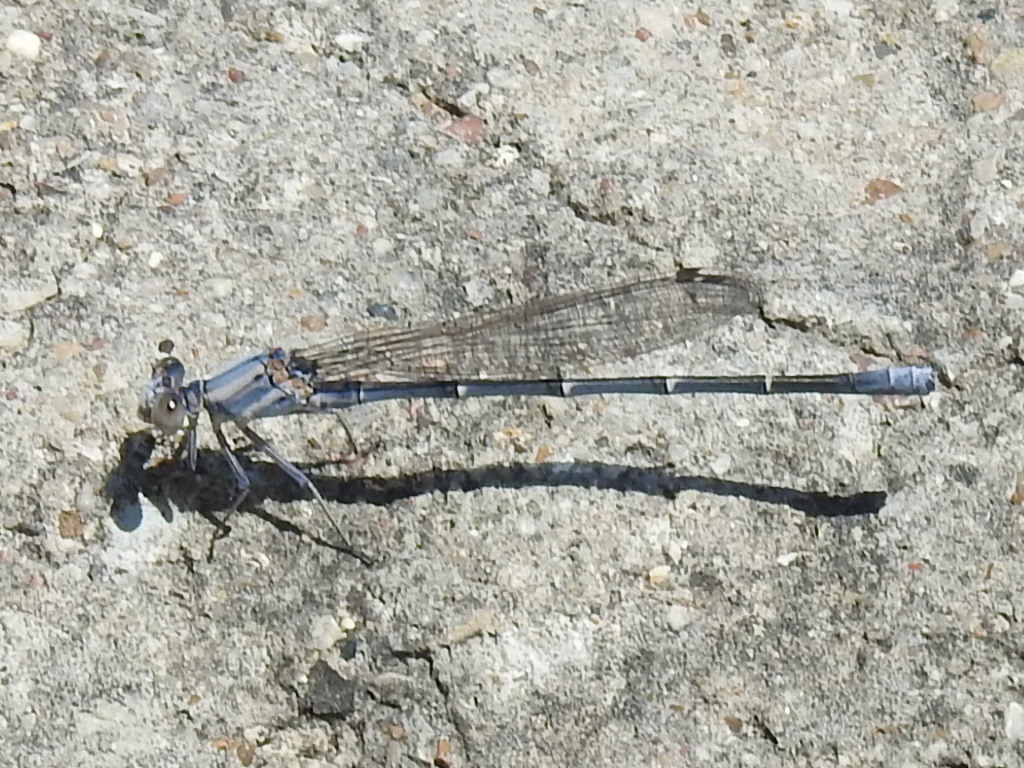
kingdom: Animalia
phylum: Arthropoda
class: Insecta
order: Odonata
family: Coenagrionidae
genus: Argia
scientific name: Argia moesta
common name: Powdered dancer
